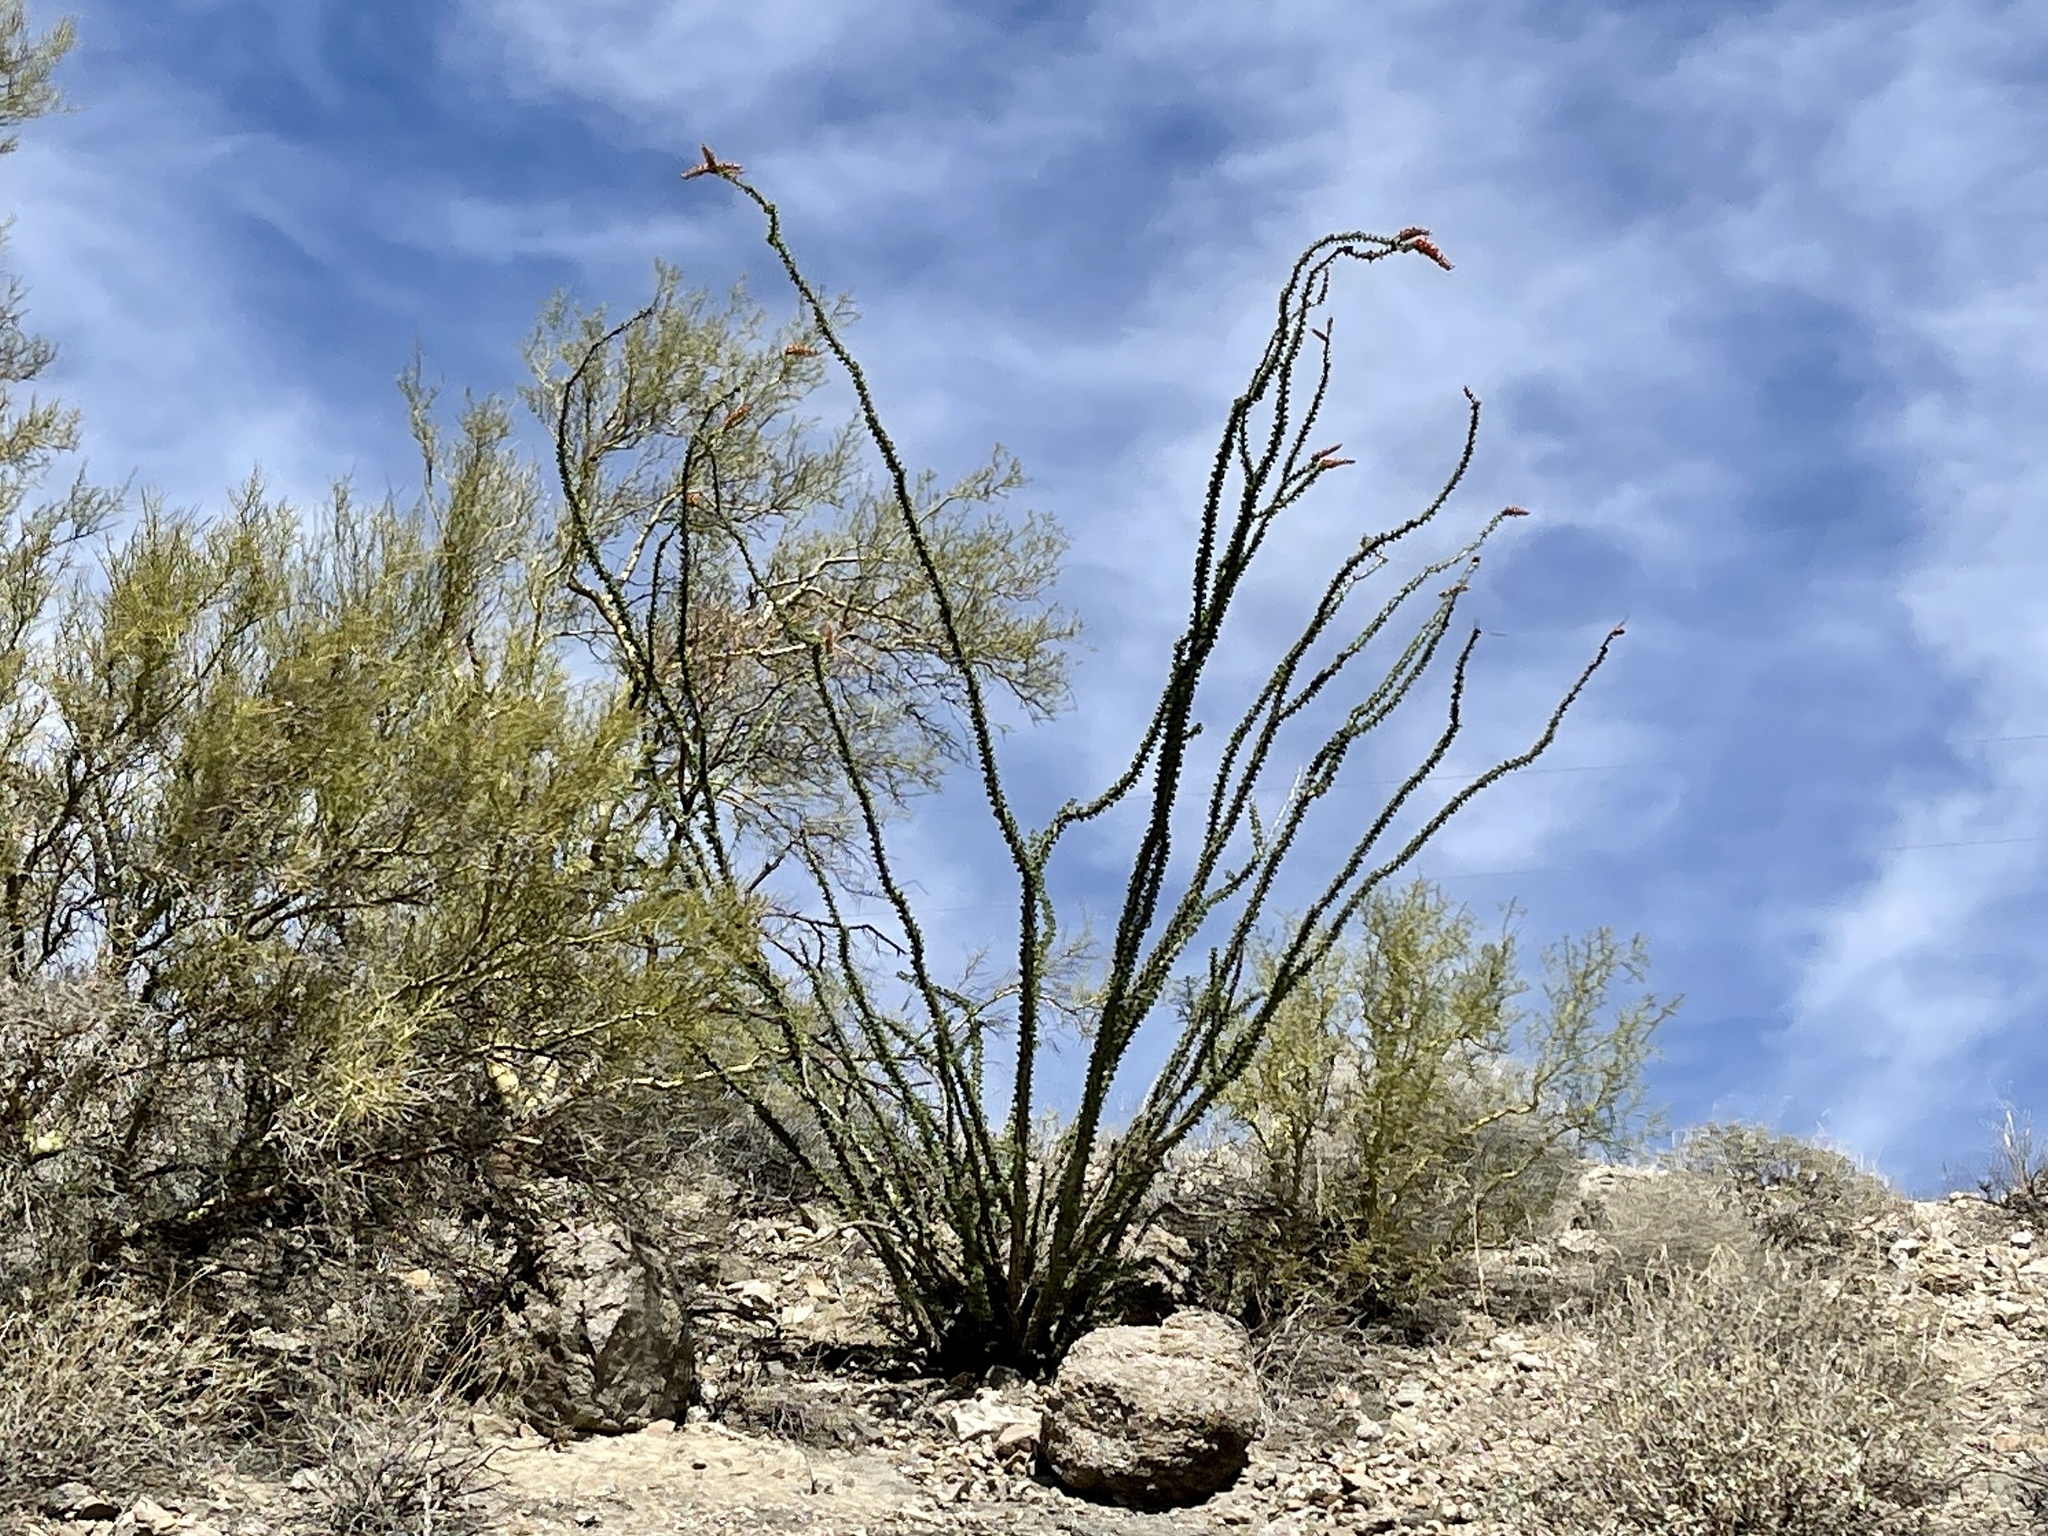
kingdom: Plantae
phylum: Tracheophyta
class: Magnoliopsida
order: Ericales
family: Fouquieriaceae
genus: Fouquieria
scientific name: Fouquieria splendens
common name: Vine-cactus
